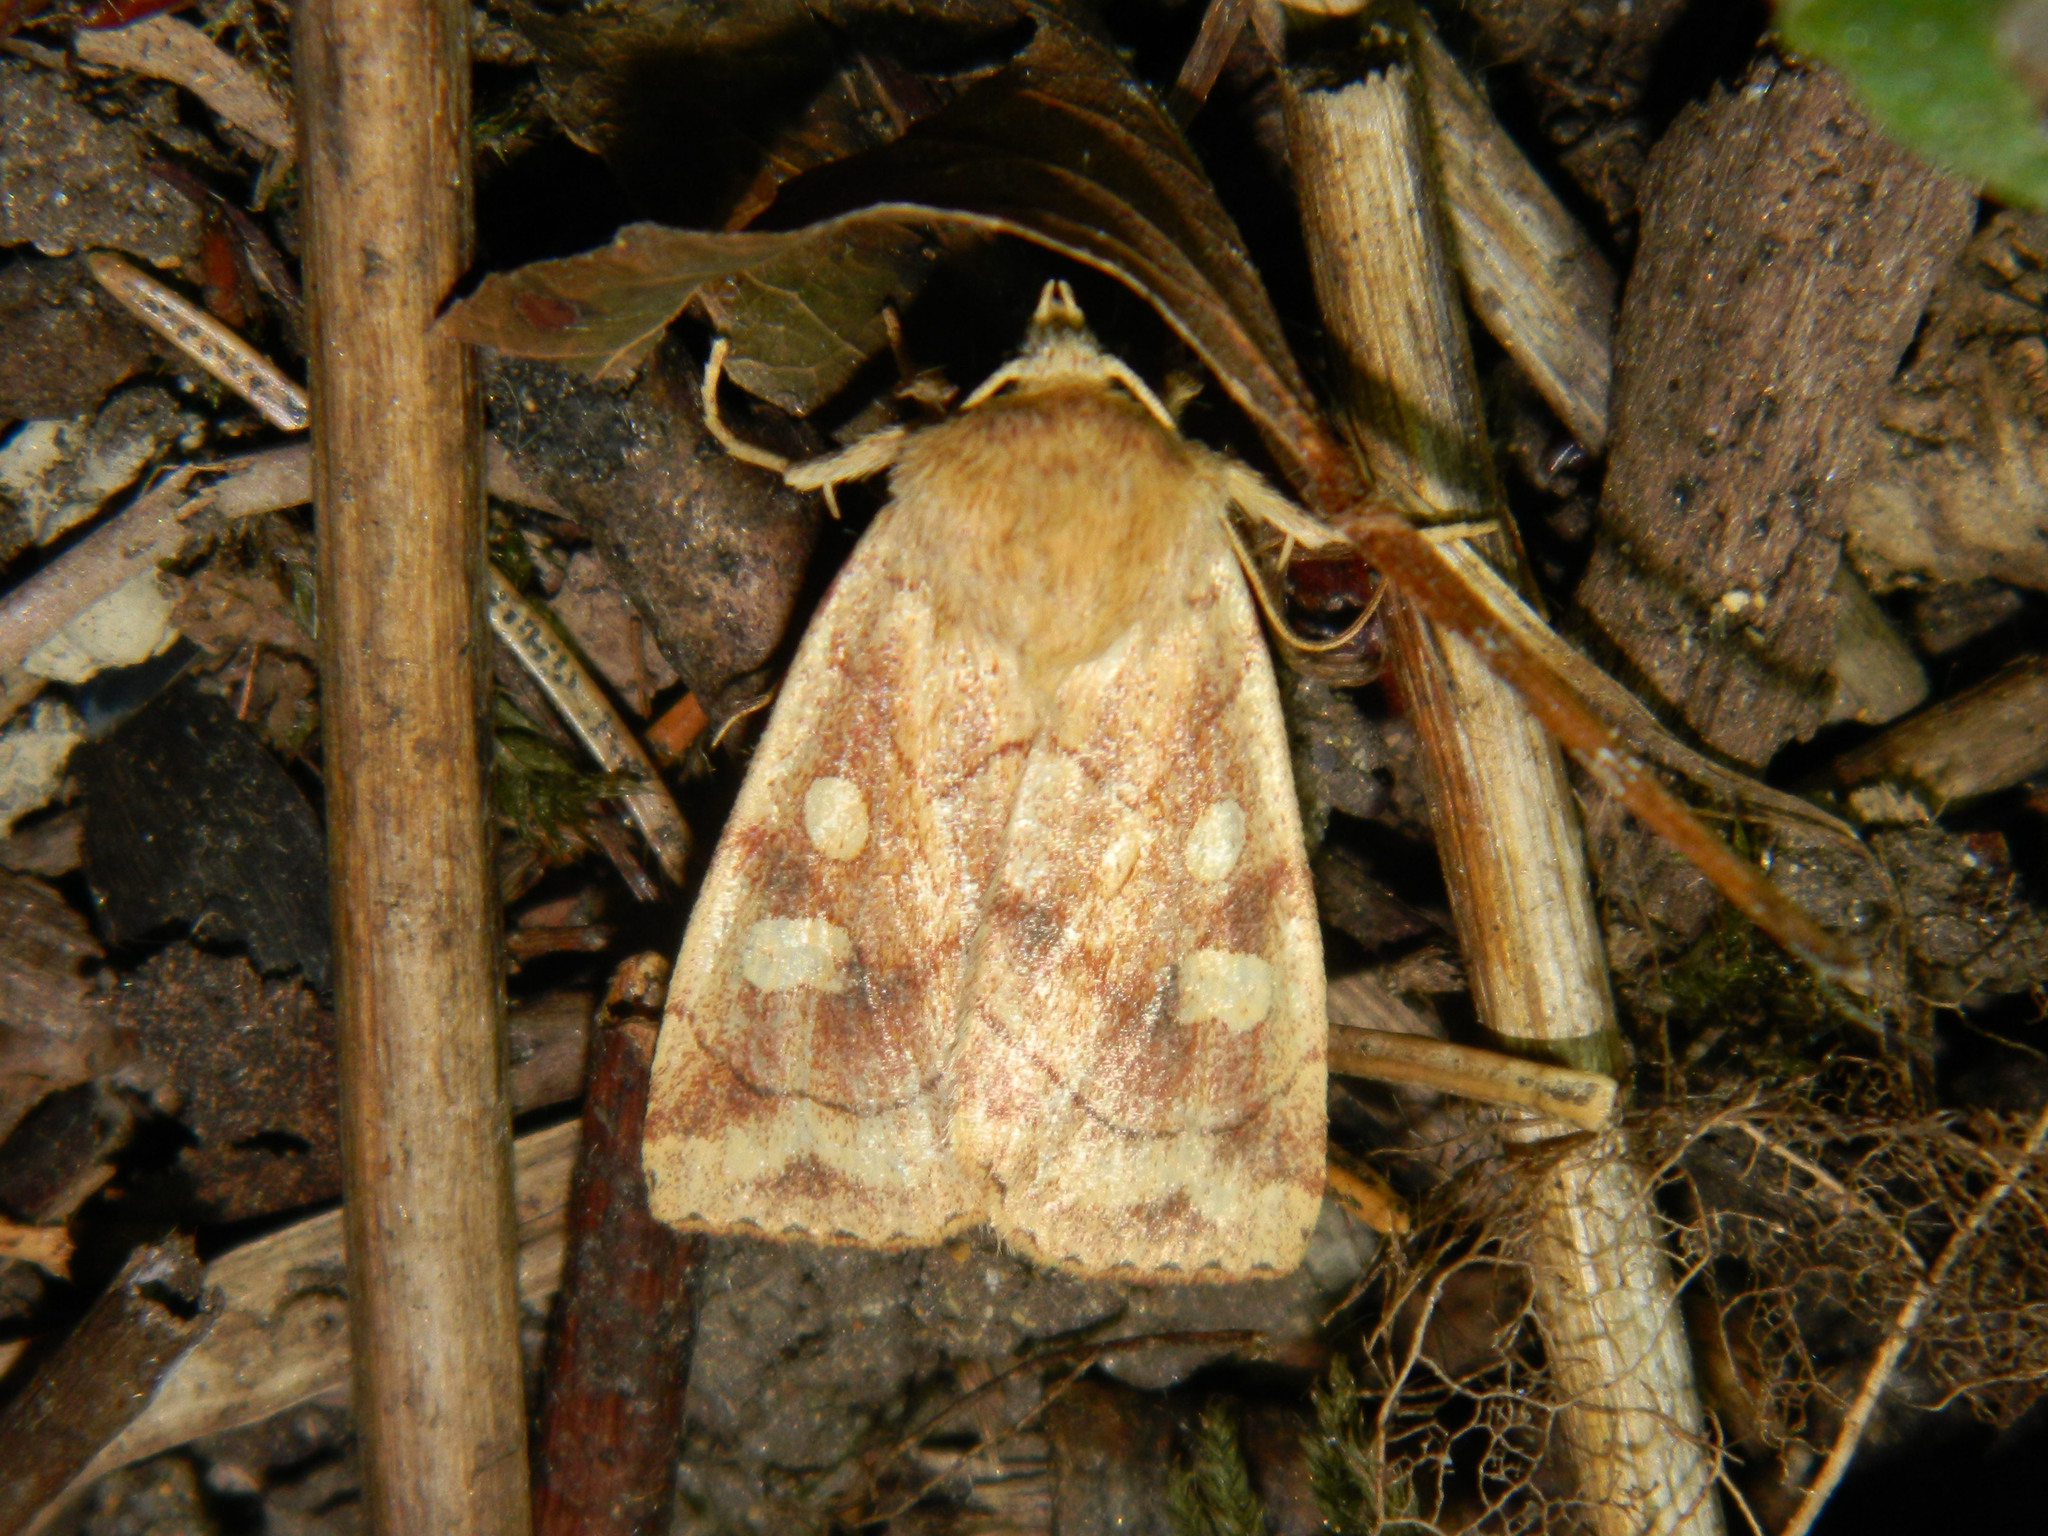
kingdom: Animalia
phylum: Arthropoda
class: Insecta
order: Lepidoptera
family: Noctuidae
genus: Enargia
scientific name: Enargia decolor
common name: Aspen twoleaf tier moth
